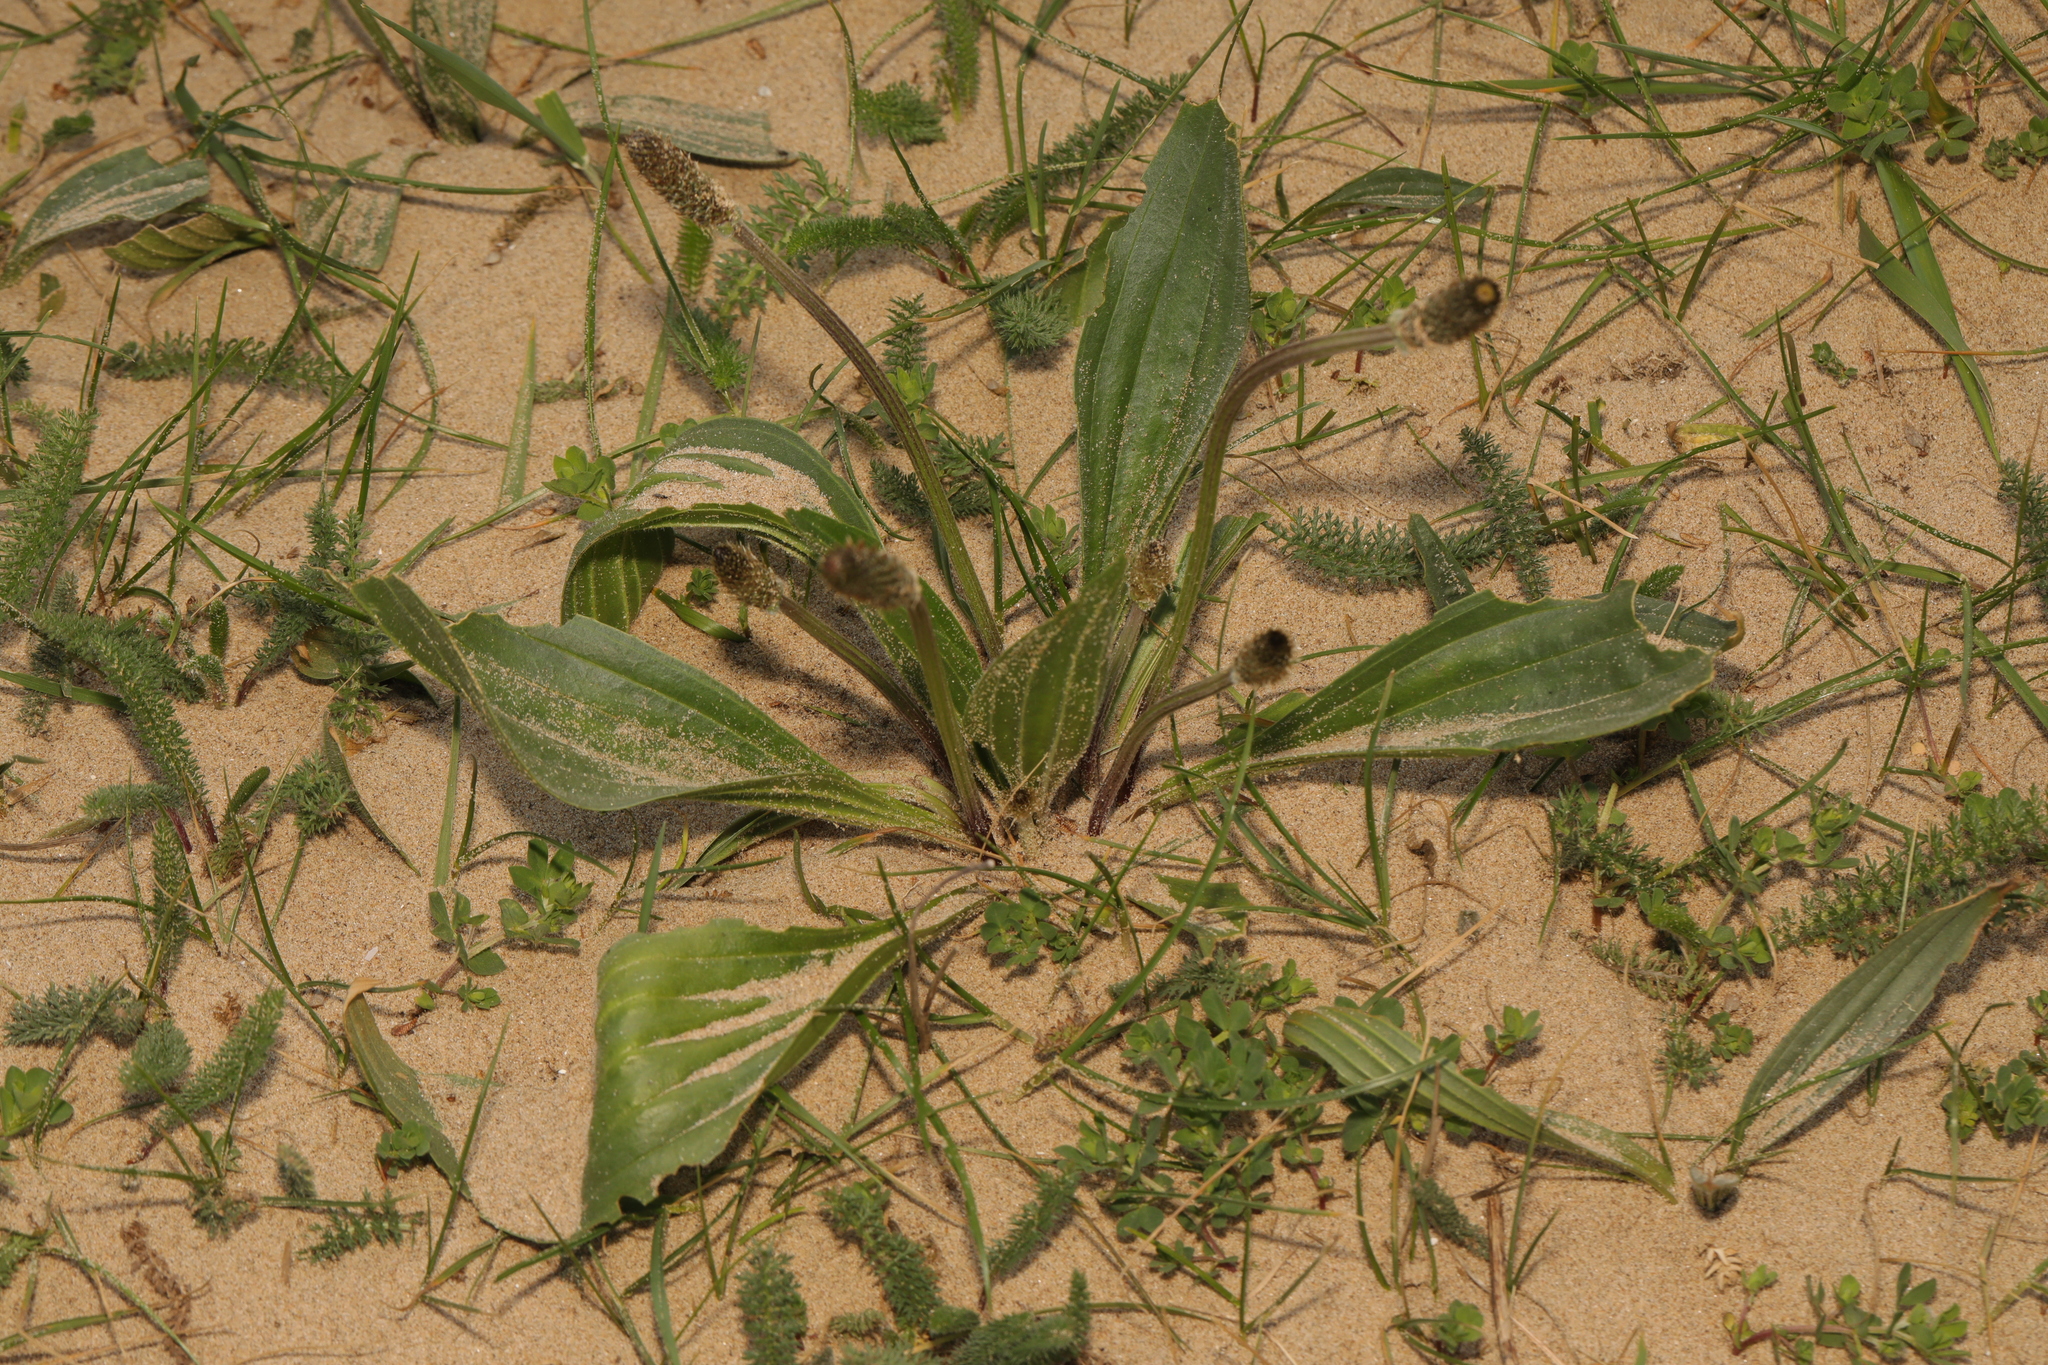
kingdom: Plantae
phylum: Tracheophyta
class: Magnoliopsida
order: Lamiales
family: Plantaginaceae
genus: Plantago
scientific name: Plantago lanceolata
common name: Ribwort plantain
